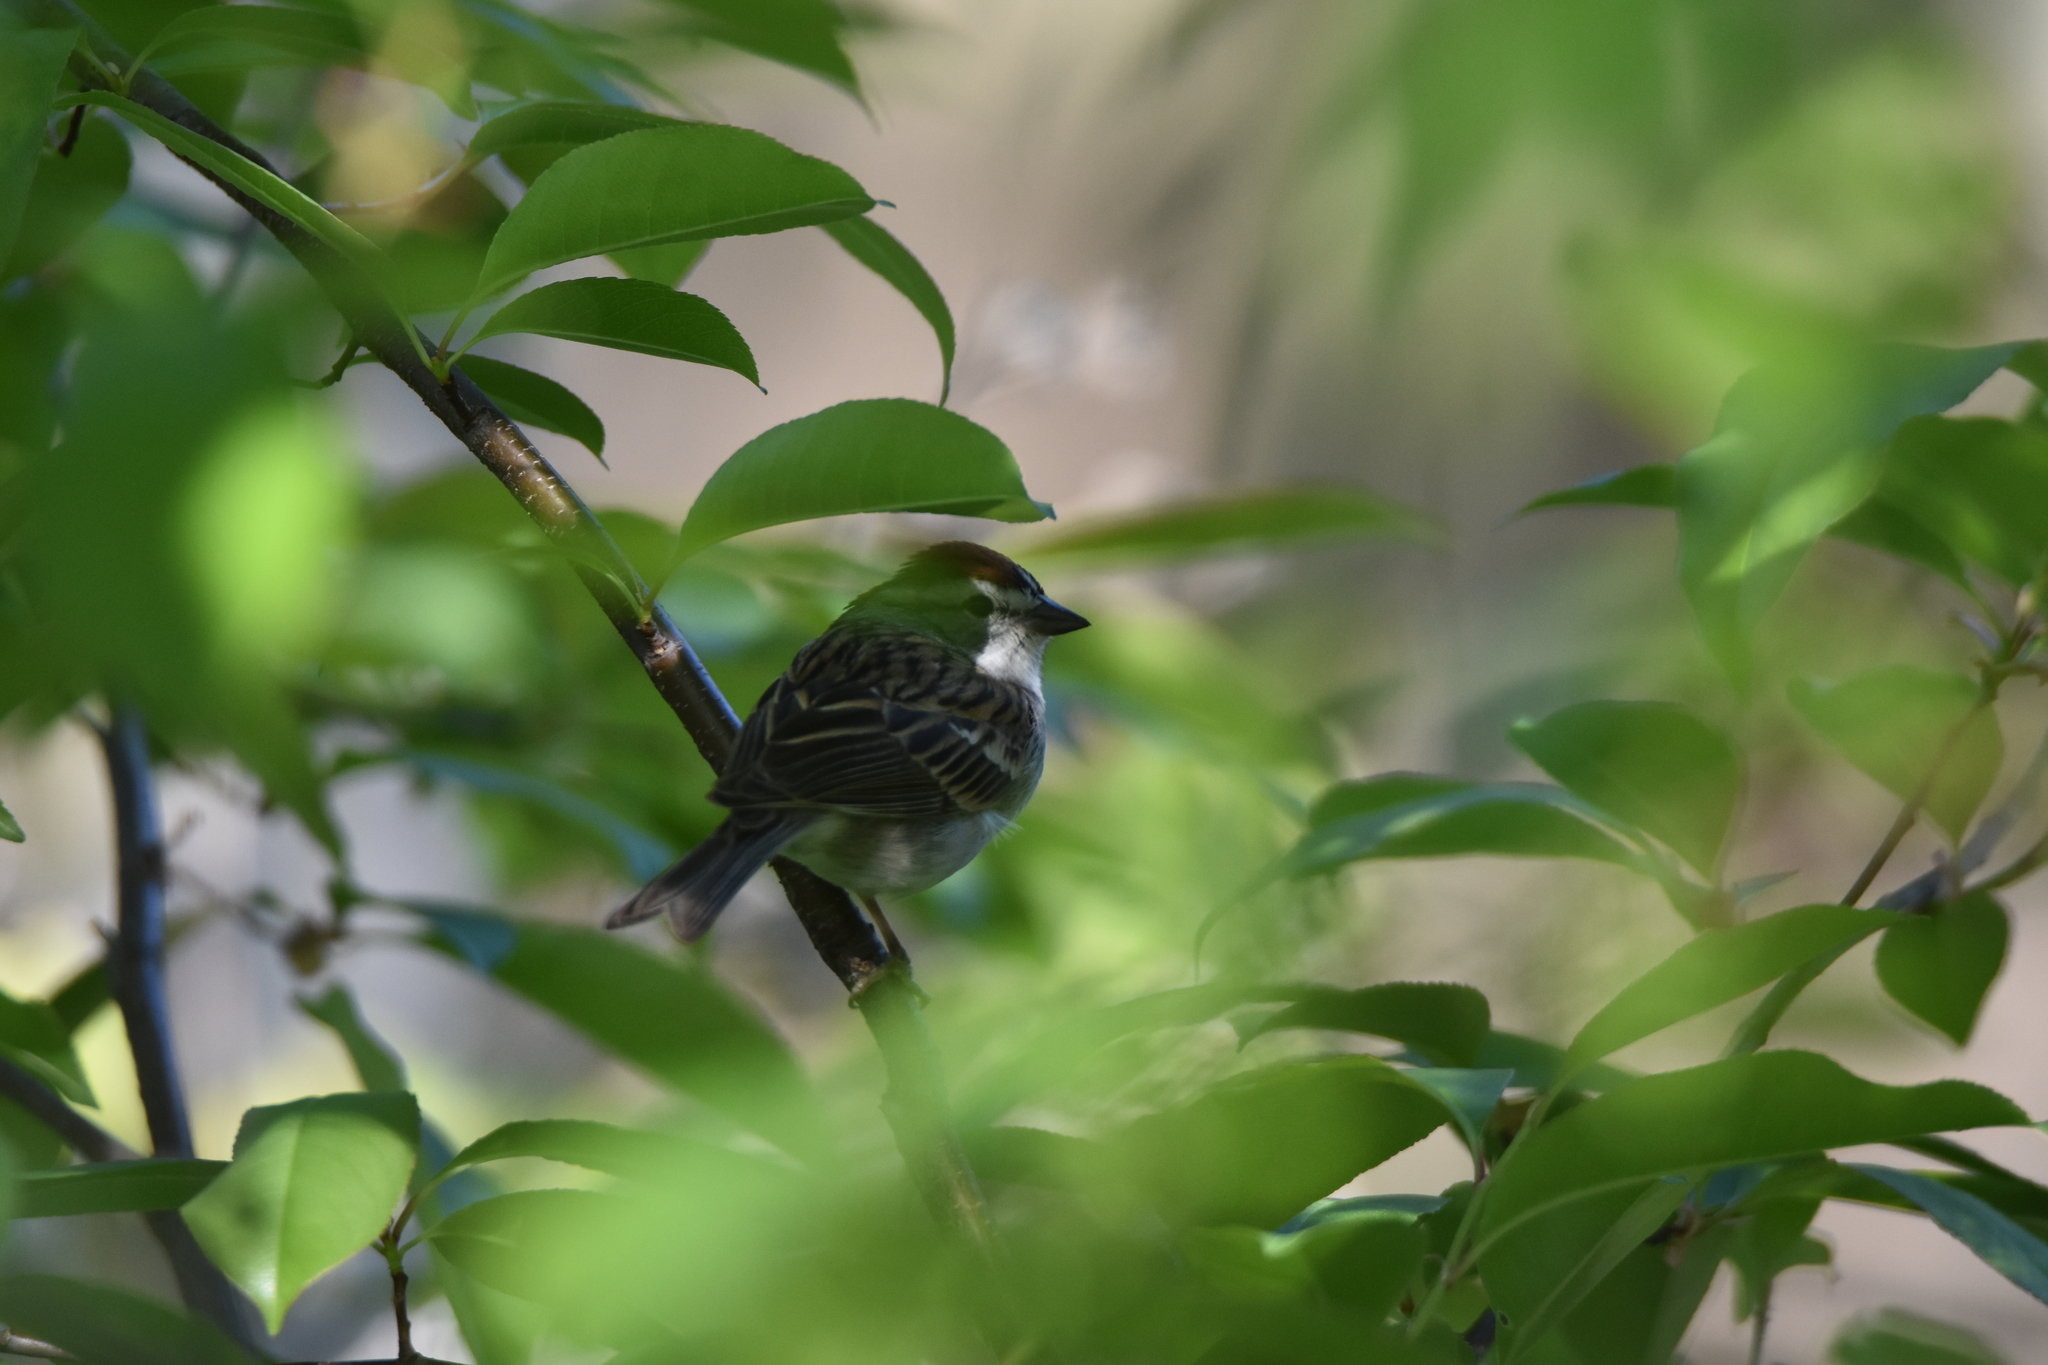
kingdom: Animalia
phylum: Chordata
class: Aves
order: Passeriformes
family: Passerellidae
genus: Spizella
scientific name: Spizella passerina
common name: Chipping sparrow
